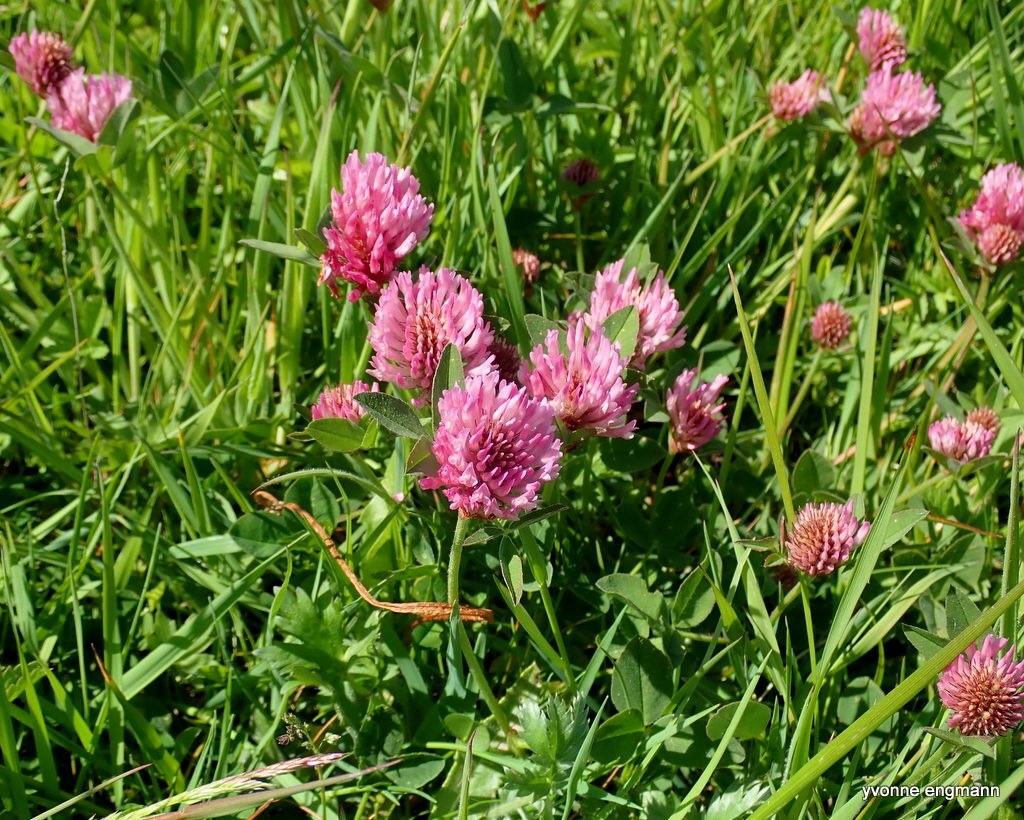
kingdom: Plantae
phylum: Tracheophyta
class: Magnoliopsida
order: Fabales
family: Fabaceae
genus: Trifolium
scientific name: Trifolium pratense
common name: Red clover
